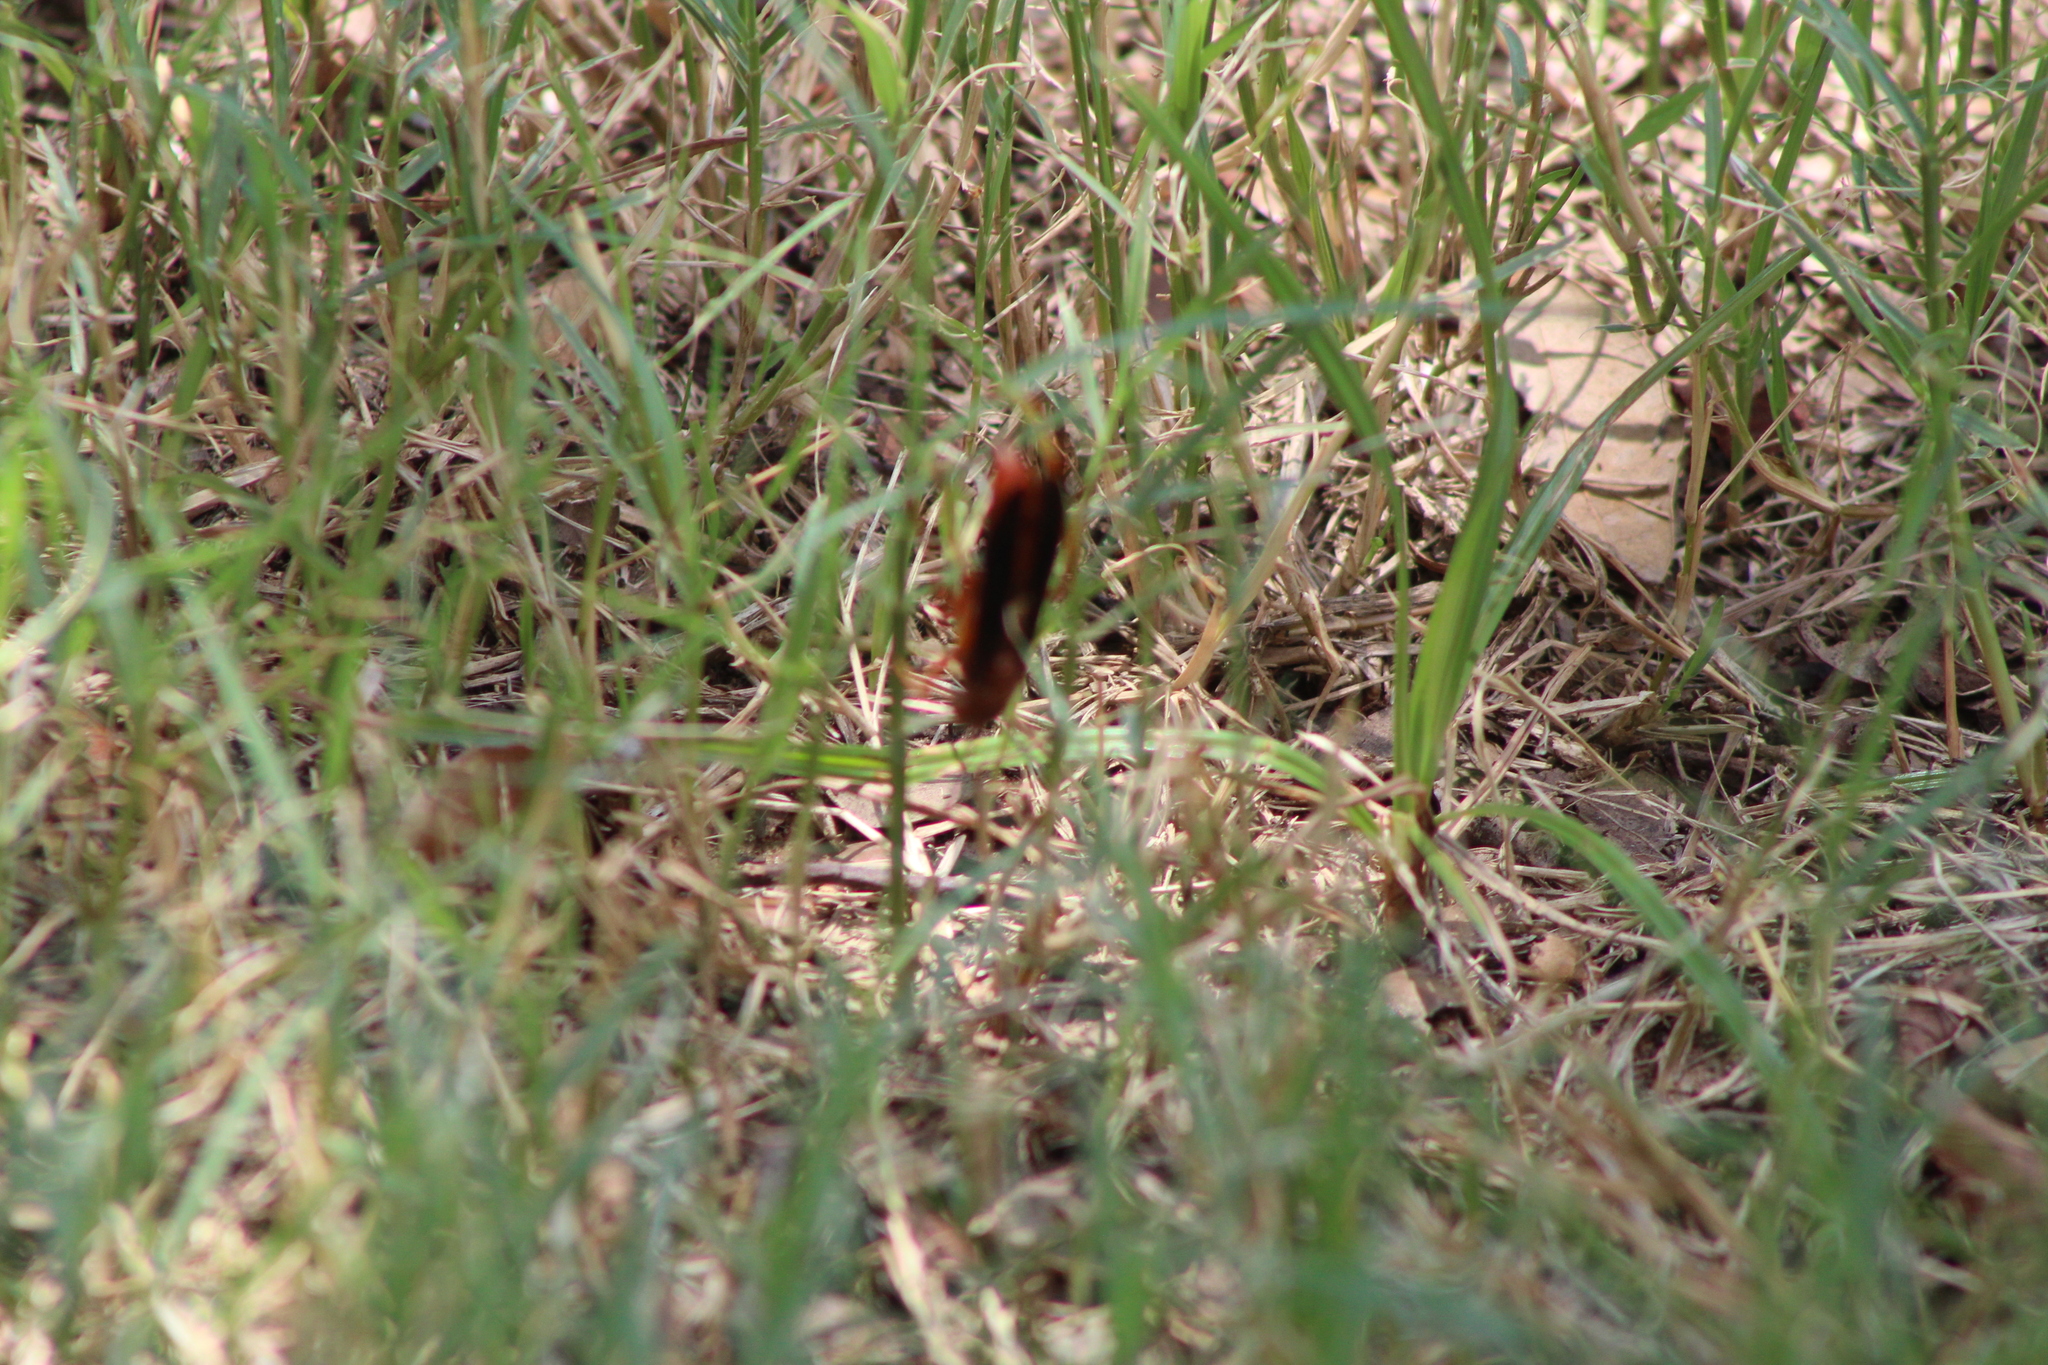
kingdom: Animalia
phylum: Arthropoda
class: Insecta
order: Hymenoptera
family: Vespidae
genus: Fuscopolistes
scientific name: Fuscopolistes
